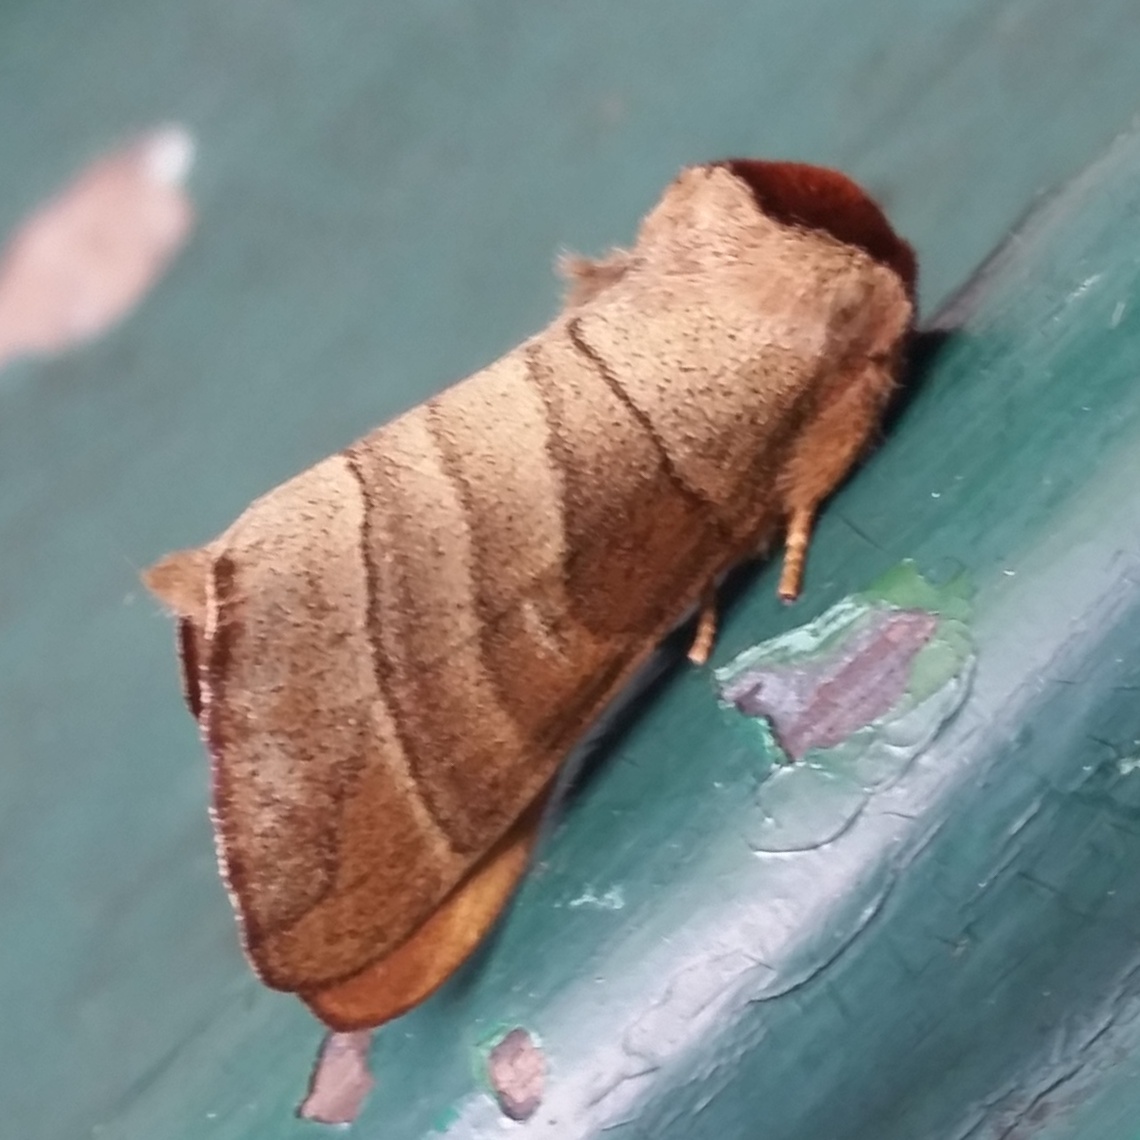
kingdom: Animalia
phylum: Arthropoda
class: Insecta
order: Lepidoptera
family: Notodontidae
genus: Datana
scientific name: Datana integerrima
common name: Walnut caterpillar
